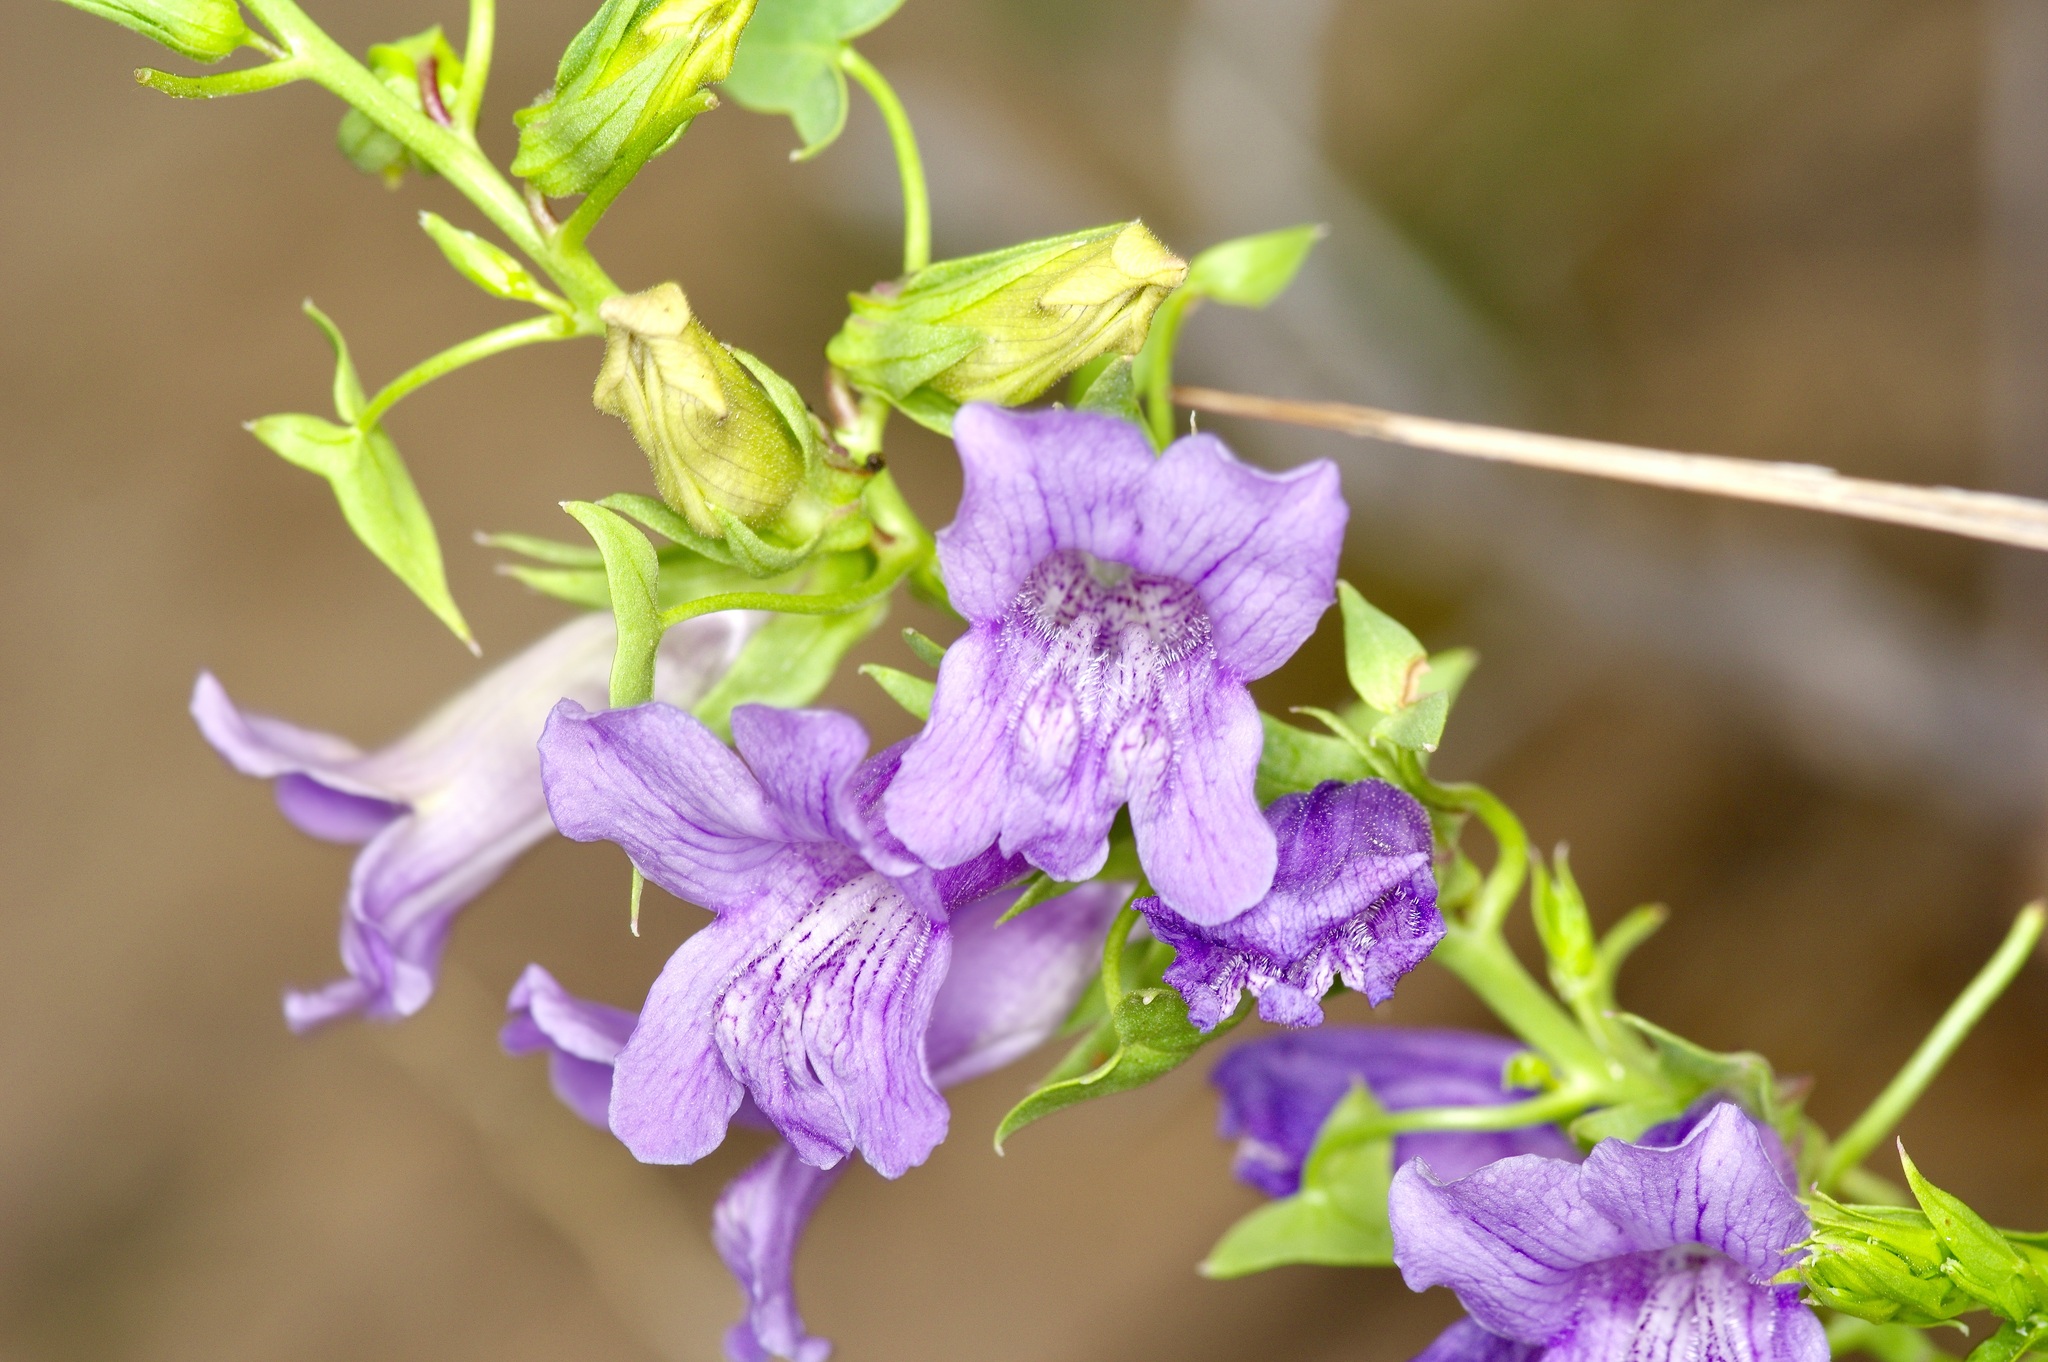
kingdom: Plantae
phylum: Tracheophyta
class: Magnoliopsida
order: Lamiales
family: Plantaginaceae
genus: Epixiphium
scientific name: Epixiphium wislizeni
